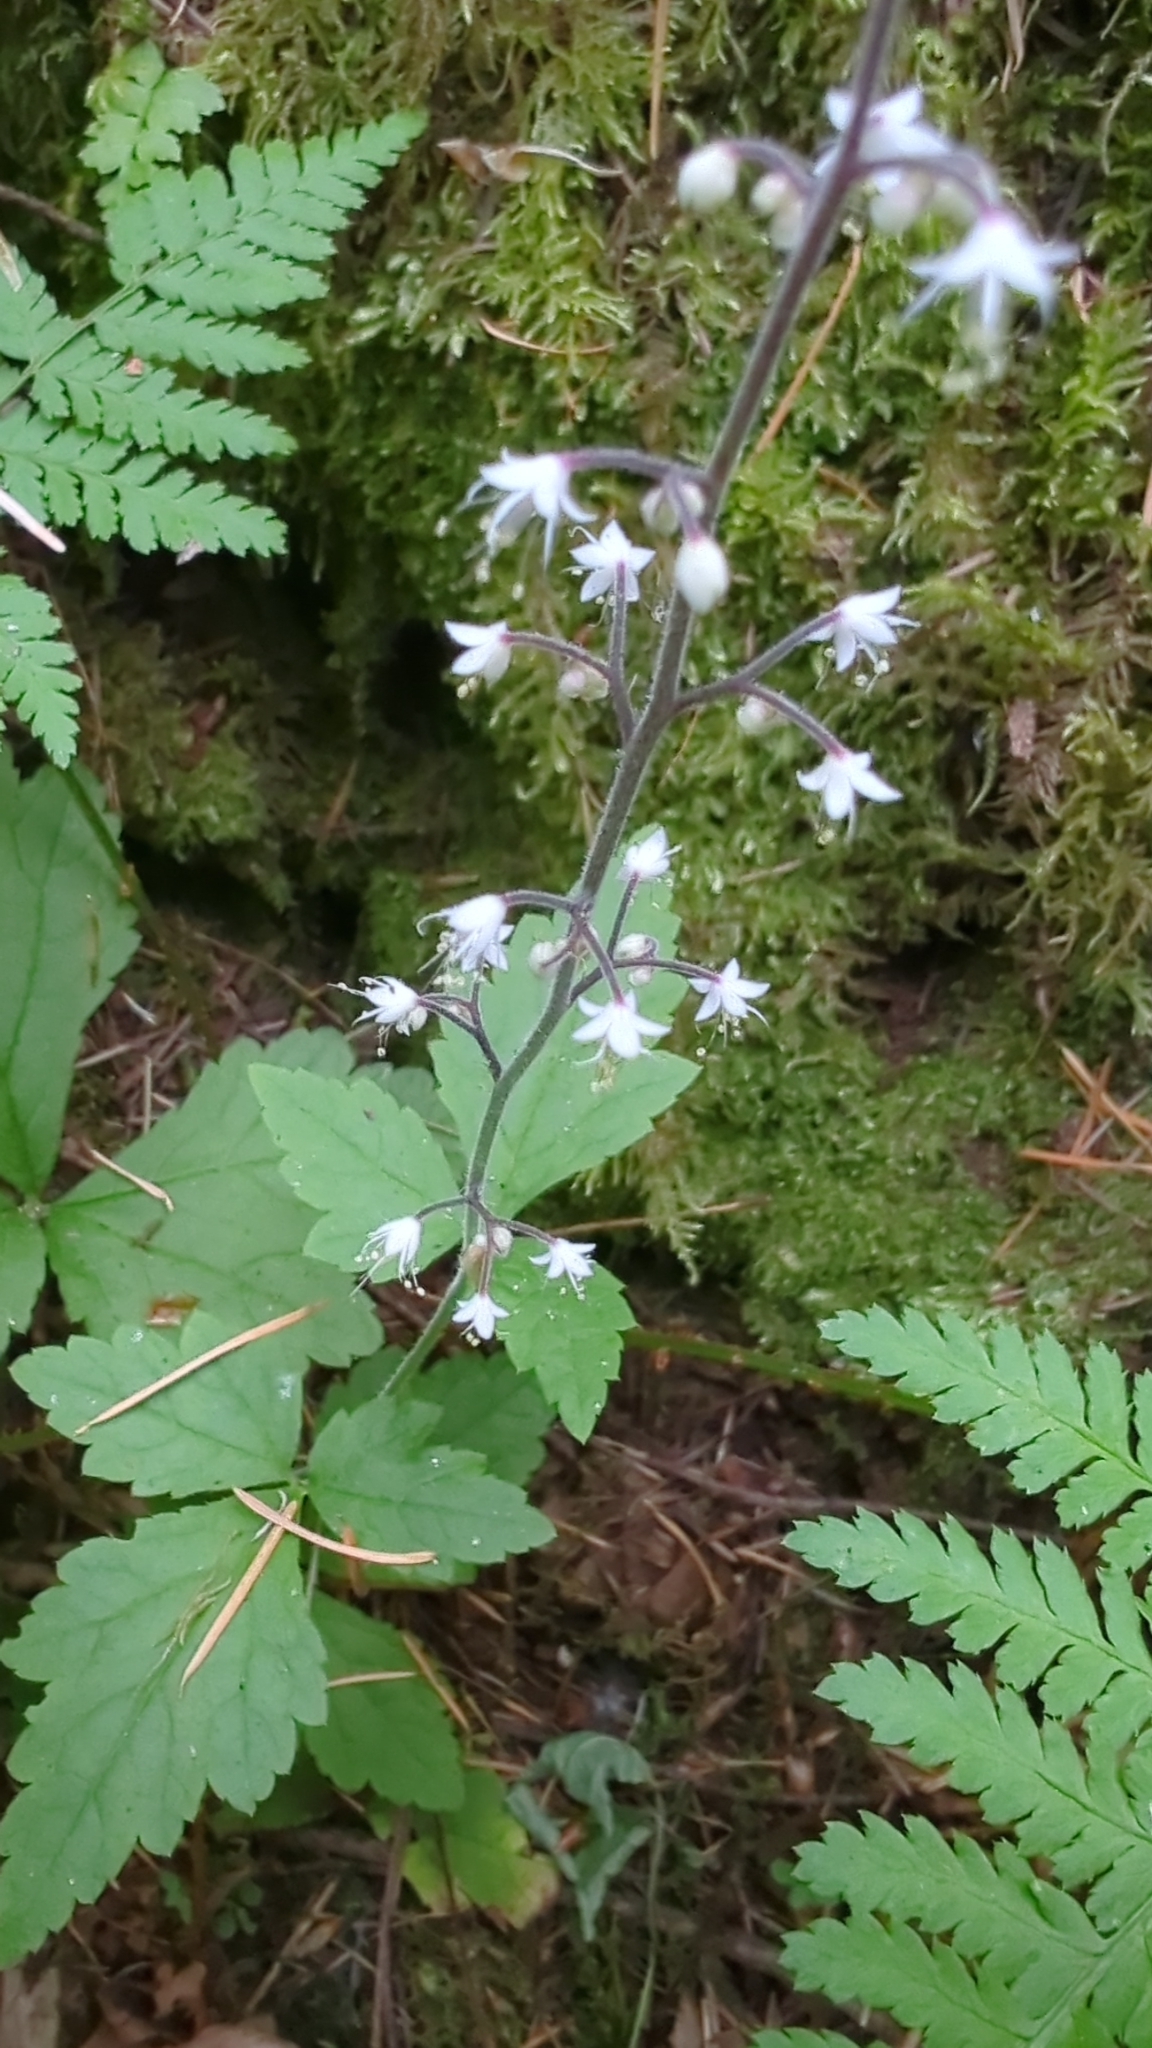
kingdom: Plantae
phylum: Tracheophyta
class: Magnoliopsida
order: Saxifragales
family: Saxifragaceae
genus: Tiarella
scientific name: Tiarella trifoliata
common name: Sugar-scoop
